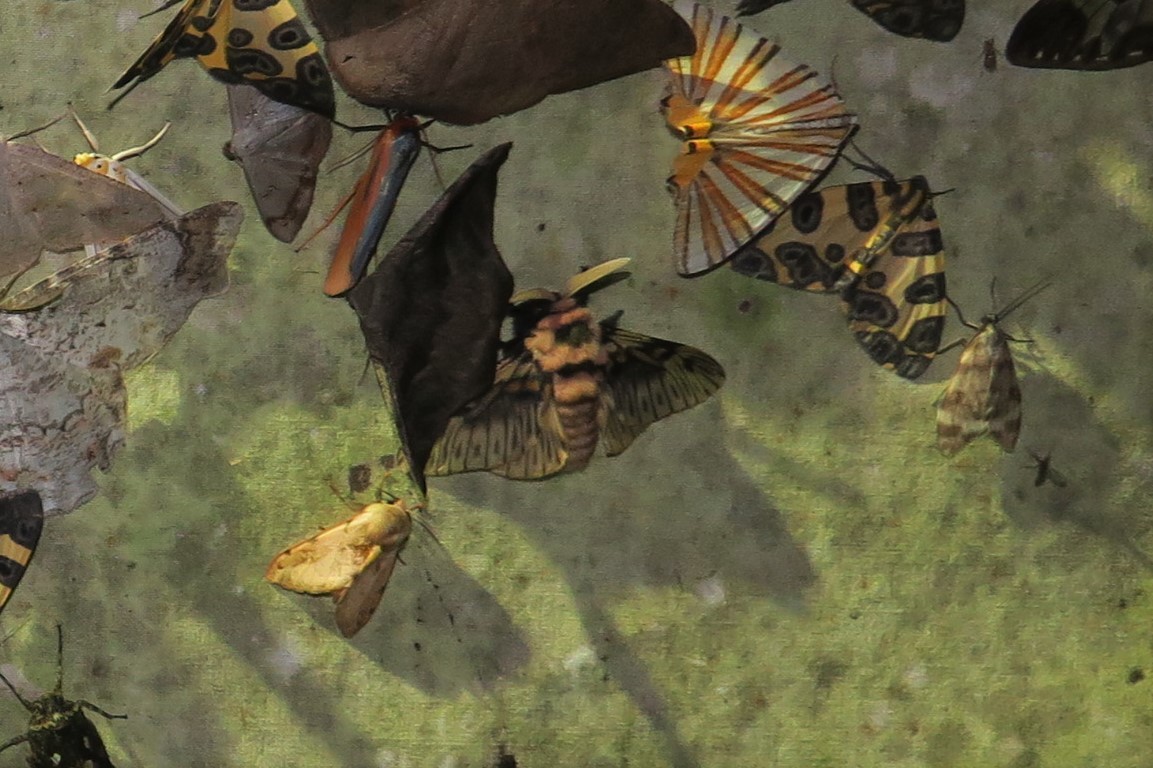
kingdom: Animalia
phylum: Arthropoda
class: Insecta
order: Lepidoptera
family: Megalopygidae
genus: Megalopyge
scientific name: Megalopyge perseae
